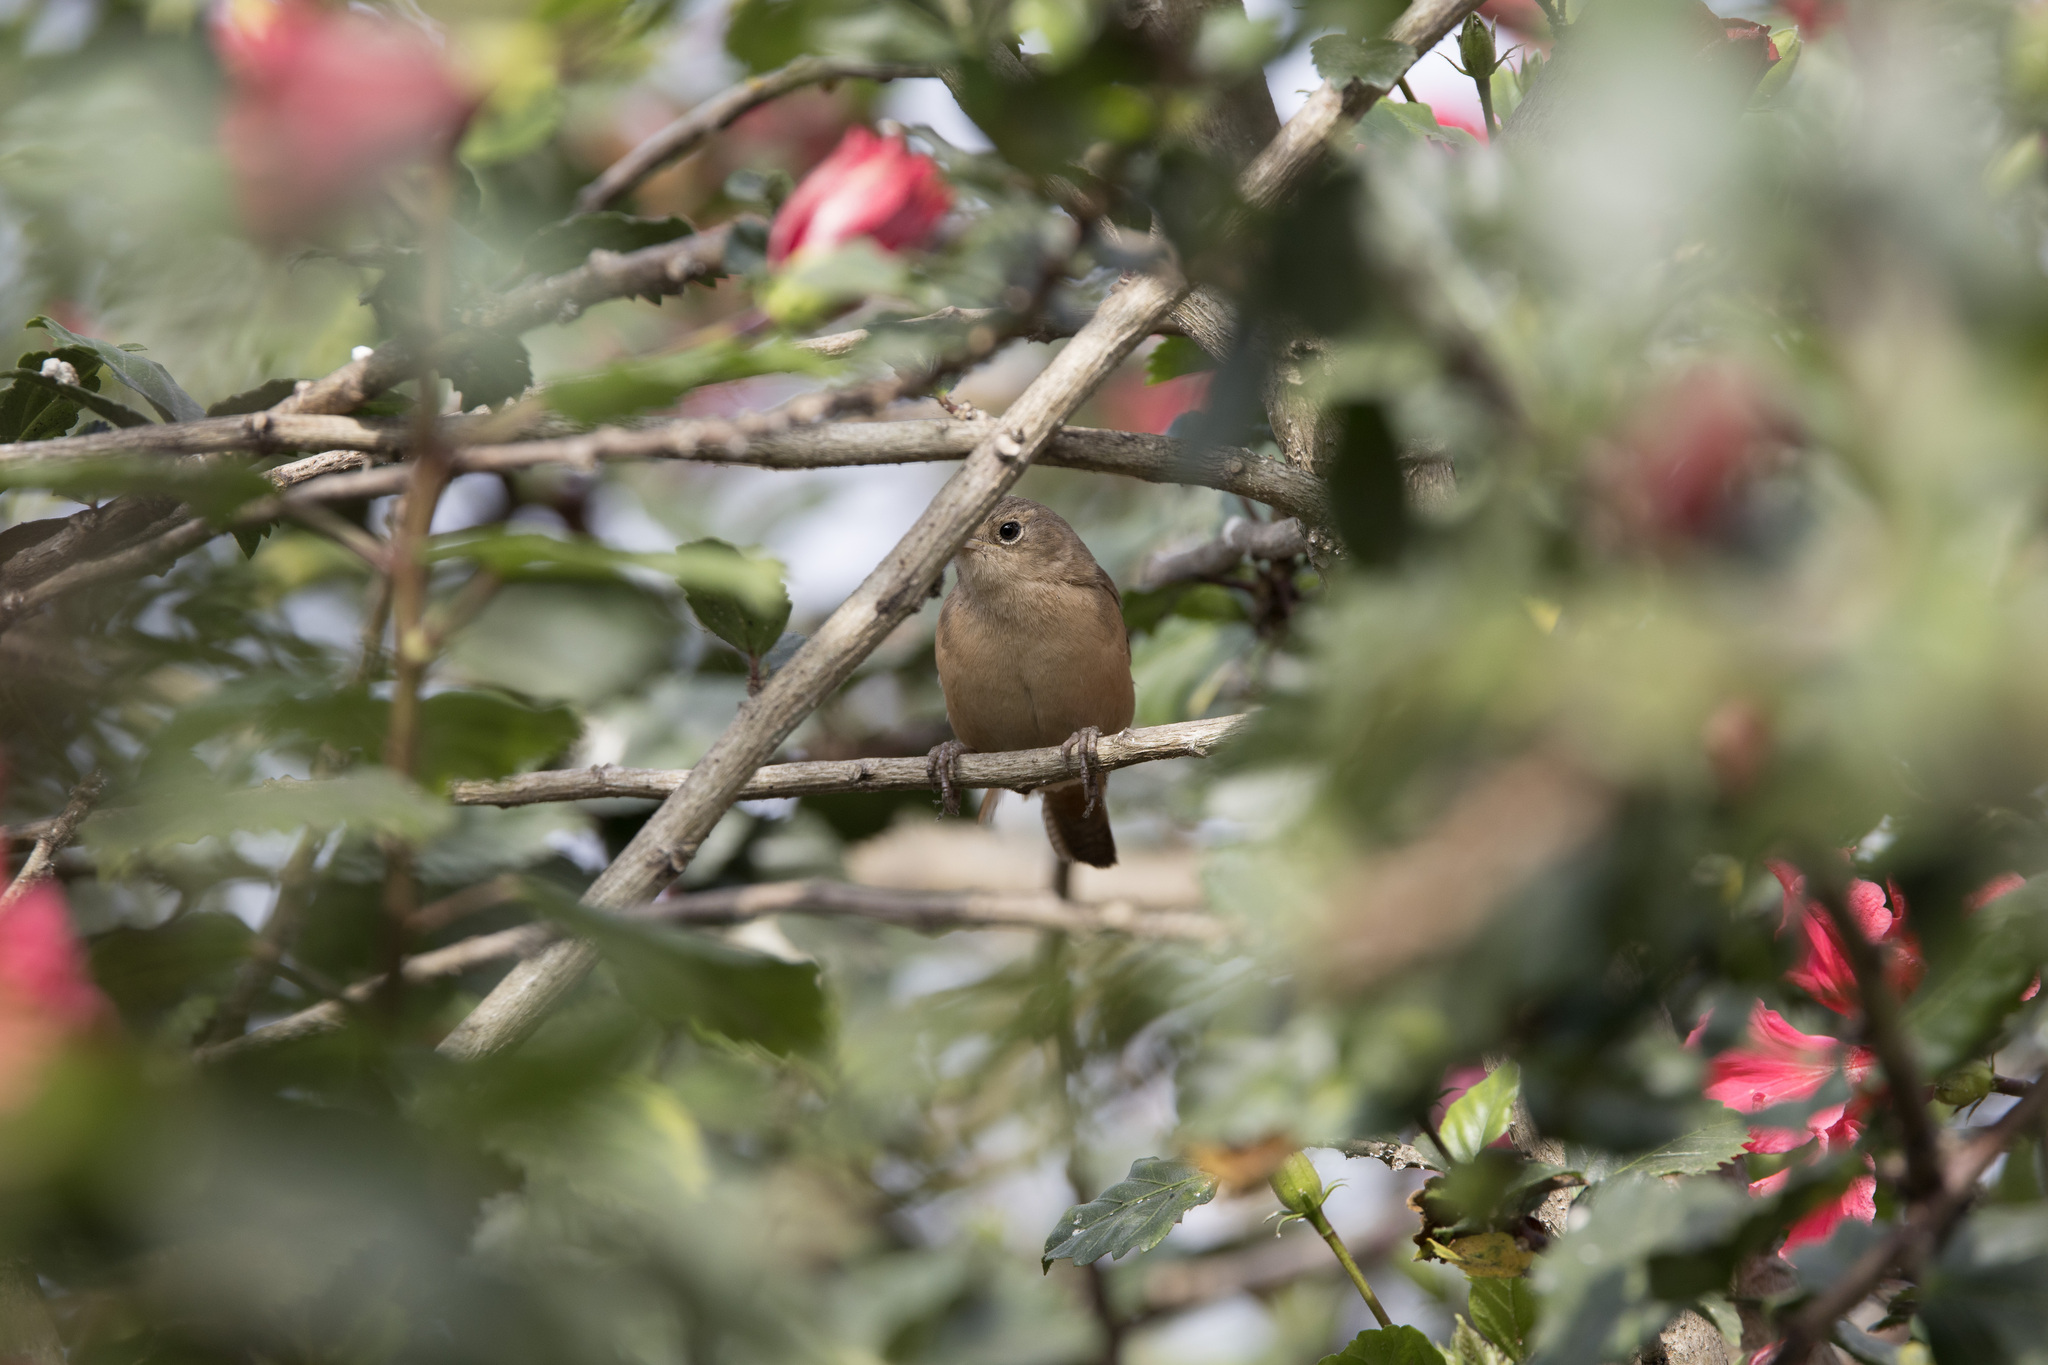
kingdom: Animalia
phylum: Chordata
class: Aves
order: Passeriformes
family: Troglodytidae
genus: Troglodytes
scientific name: Troglodytes aedon
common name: House wren
